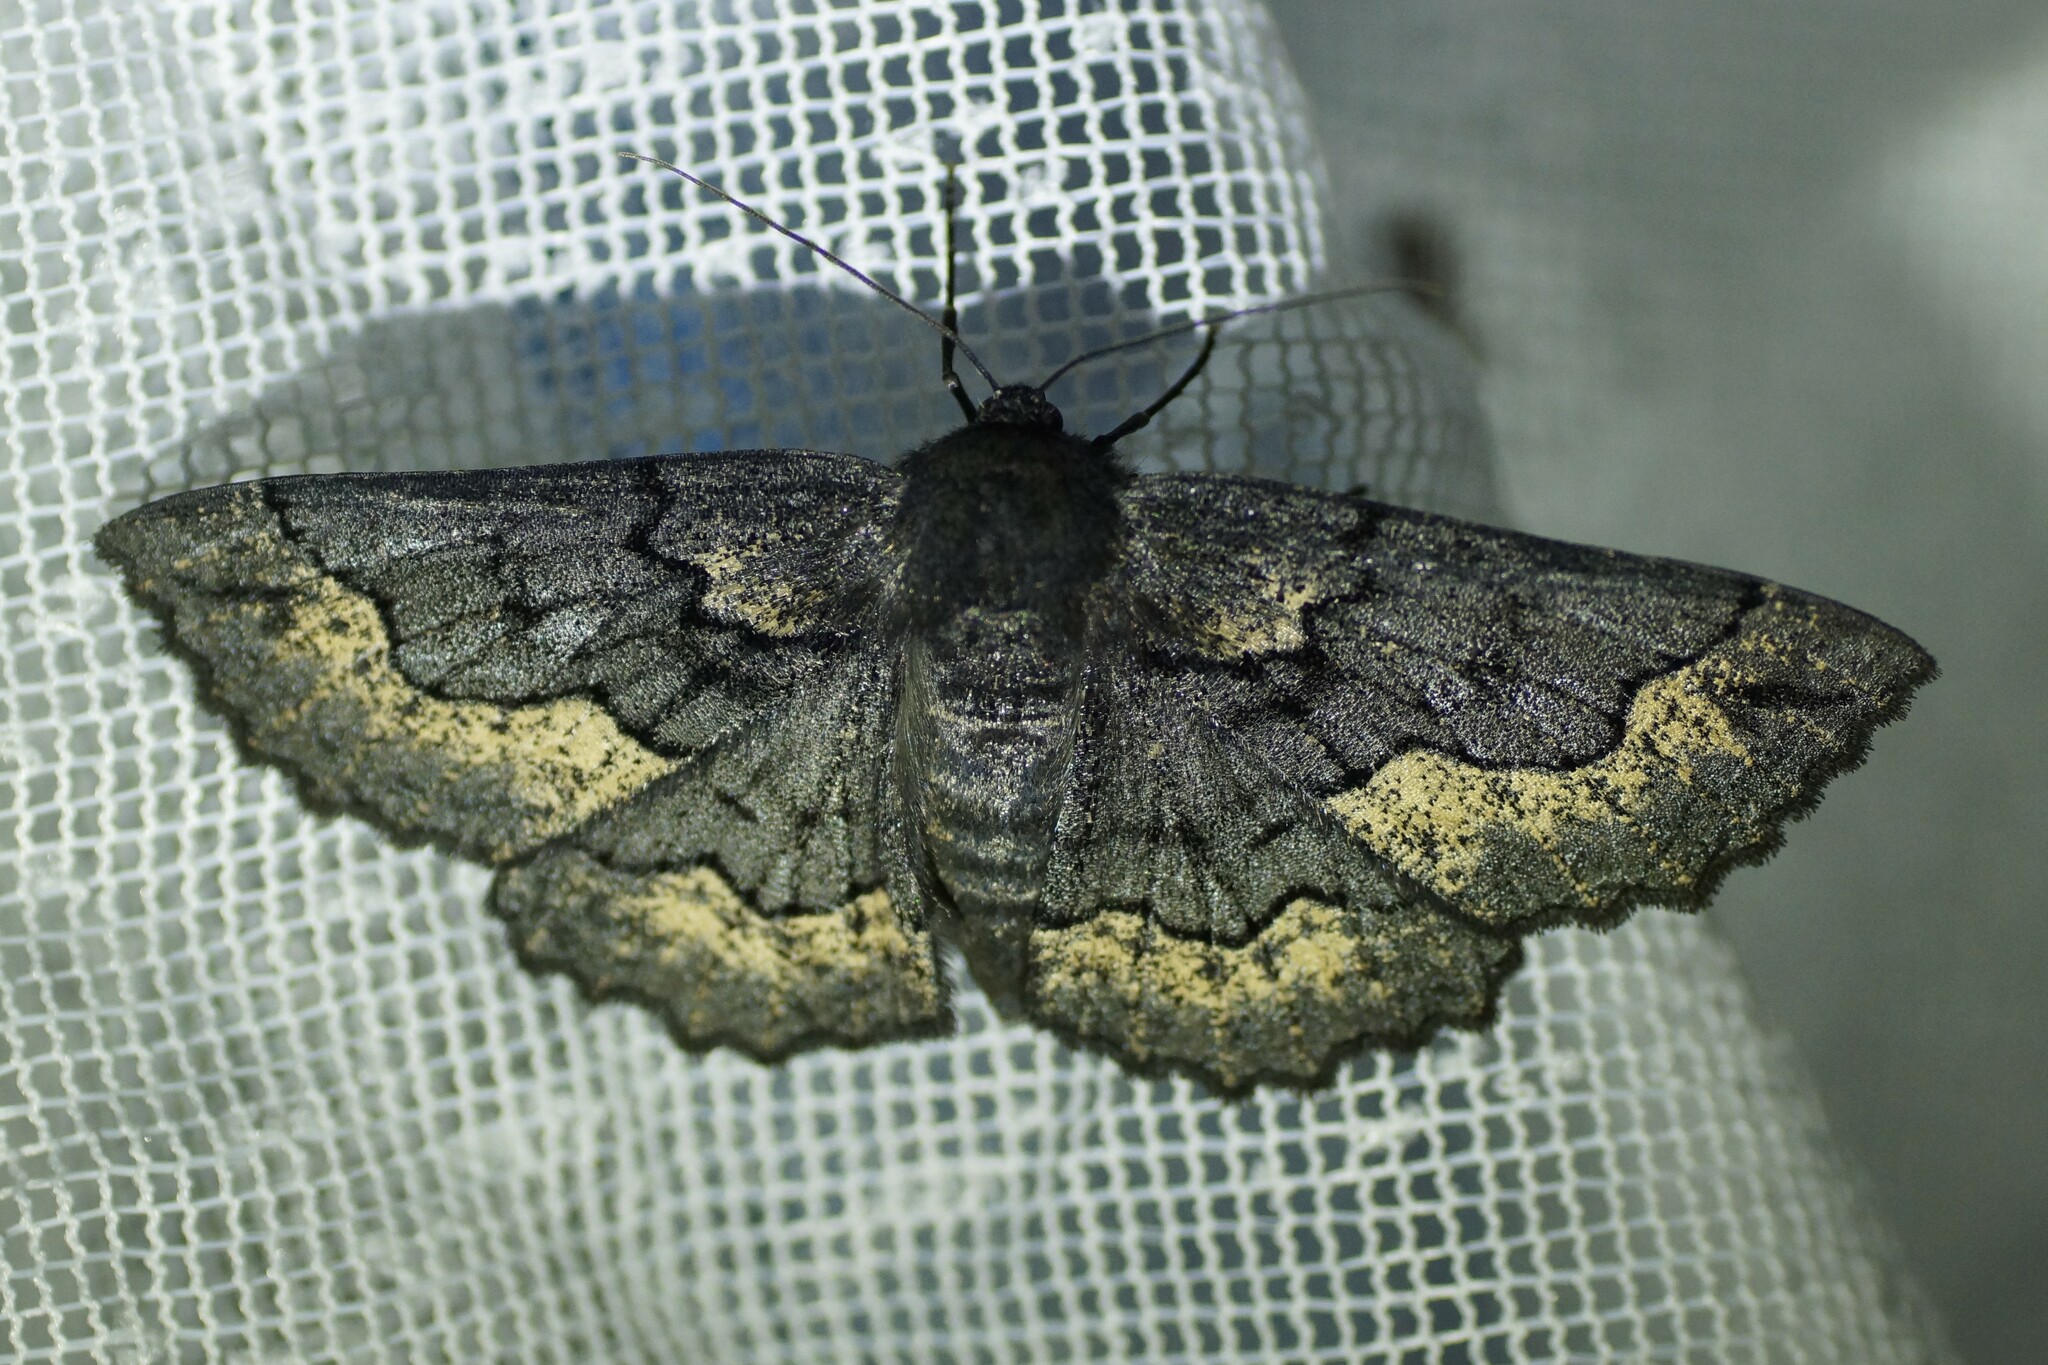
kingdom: Animalia
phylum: Arthropoda
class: Insecta
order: Lepidoptera
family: Geometridae
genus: Melanodes
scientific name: Melanodes anthracitaria
